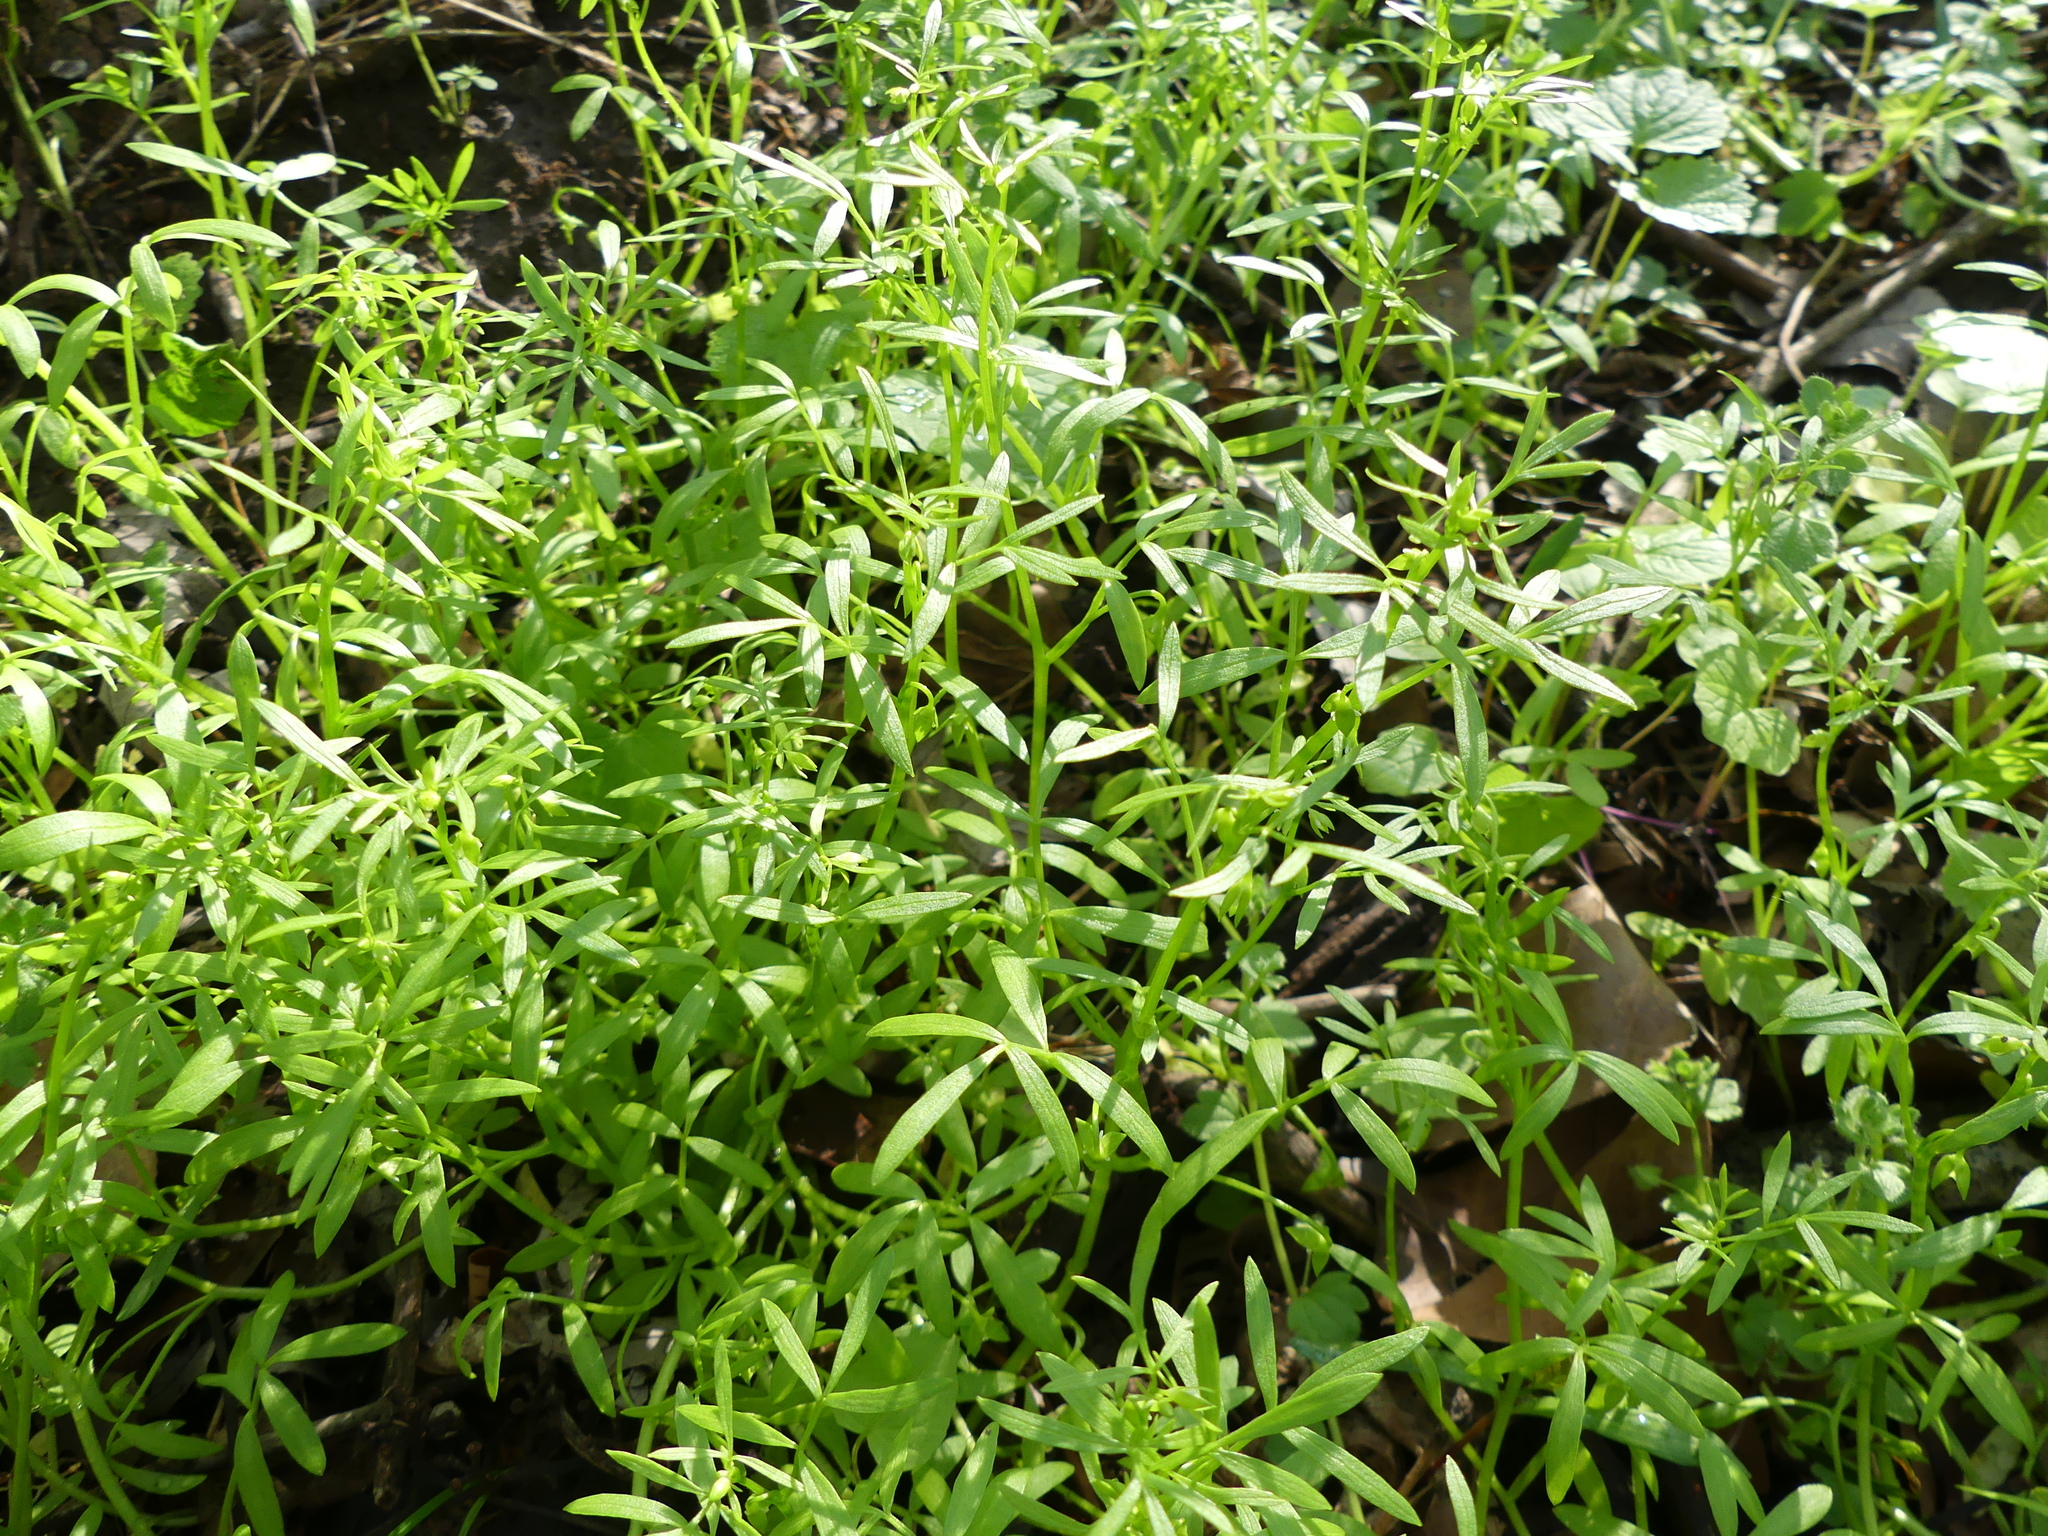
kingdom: Plantae
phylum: Tracheophyta
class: Magnoliopsida
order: Brassicales
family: Limnanthaceae
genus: Floerkea
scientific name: Floerkea proserpinacoides
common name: False mermaid
